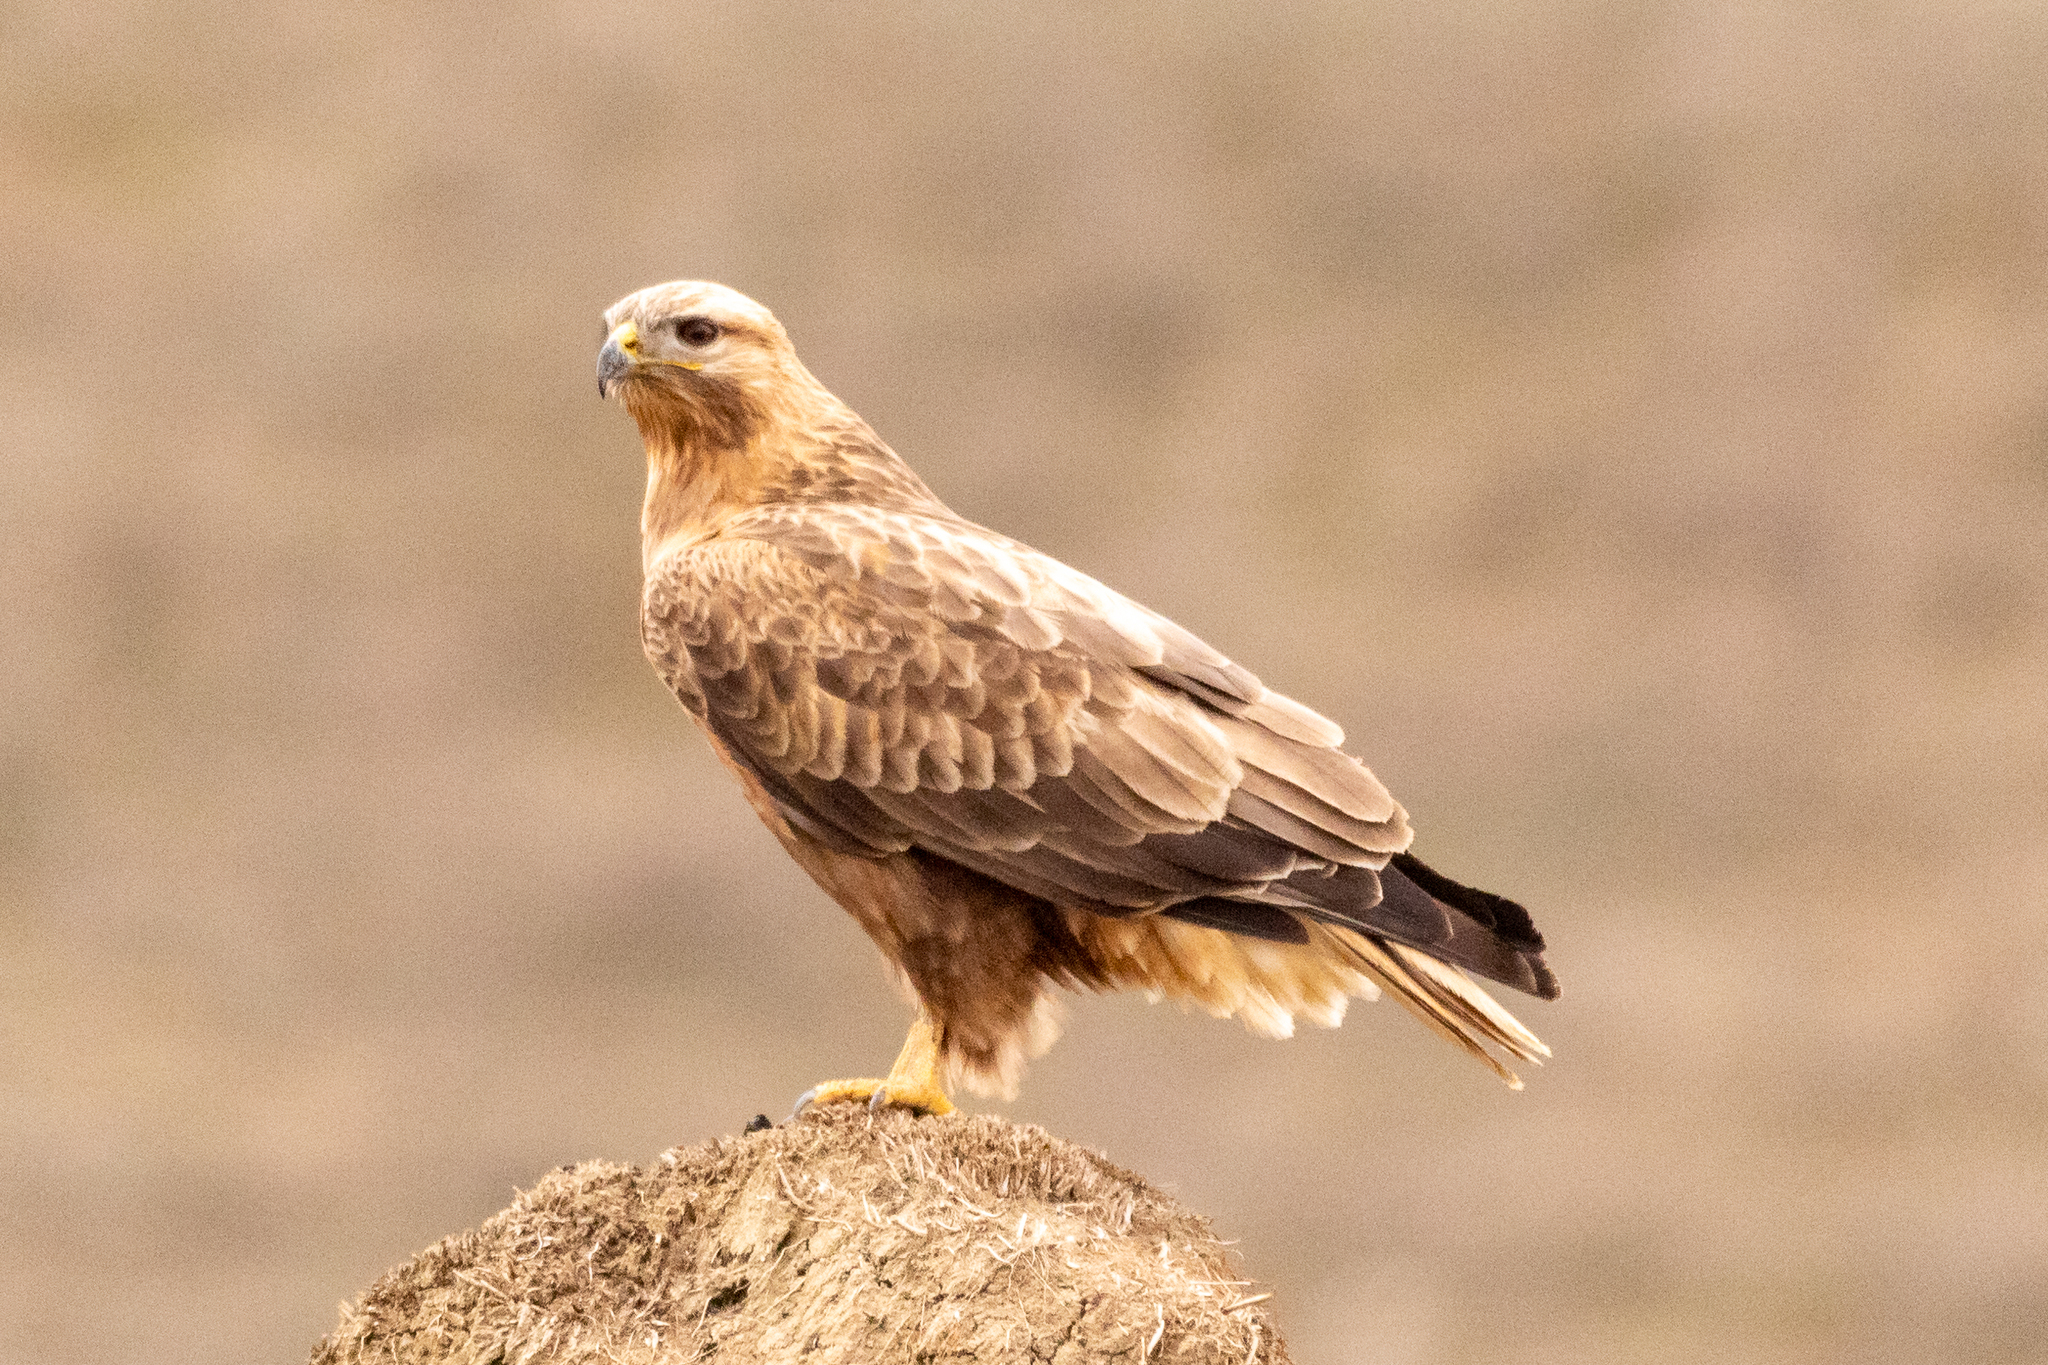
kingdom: Animalia
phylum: Chordata
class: Aves
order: Accipitriformes
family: Accipitridae
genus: Buteo
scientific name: Buteo rufinus
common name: Long-legged buzzard
